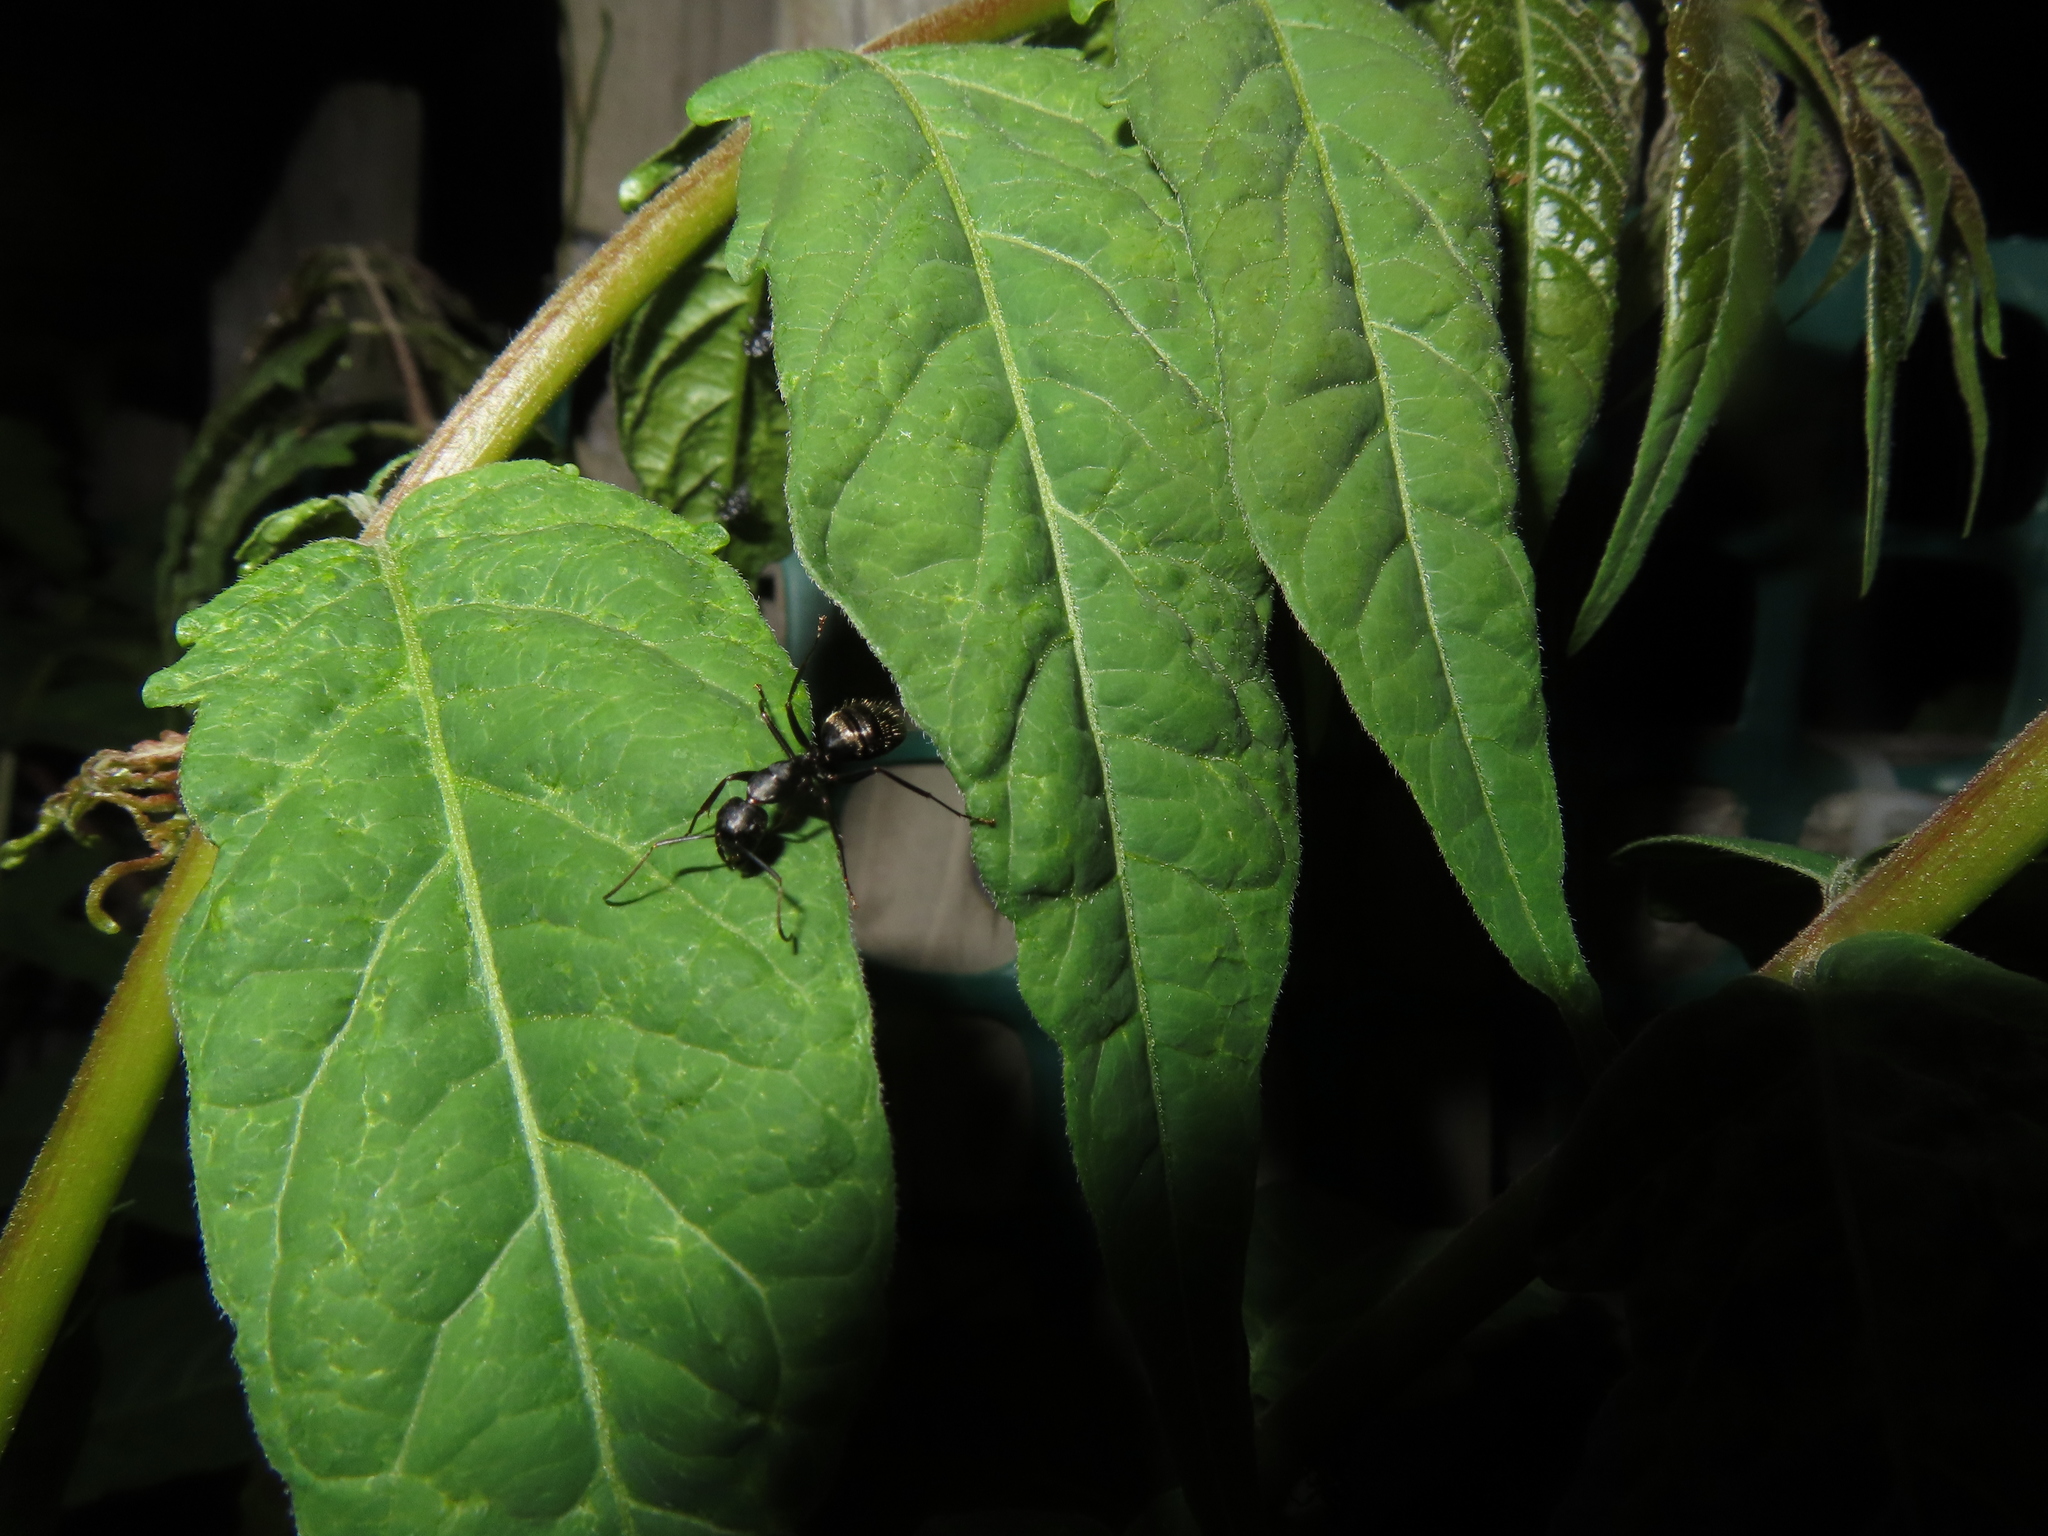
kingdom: Animalia
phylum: Arthropoda
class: Insecta
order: Hymenoptera
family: Formicidae
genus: Camponotus
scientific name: Camponotus pennsylvanicus
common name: Black carpenter ant
